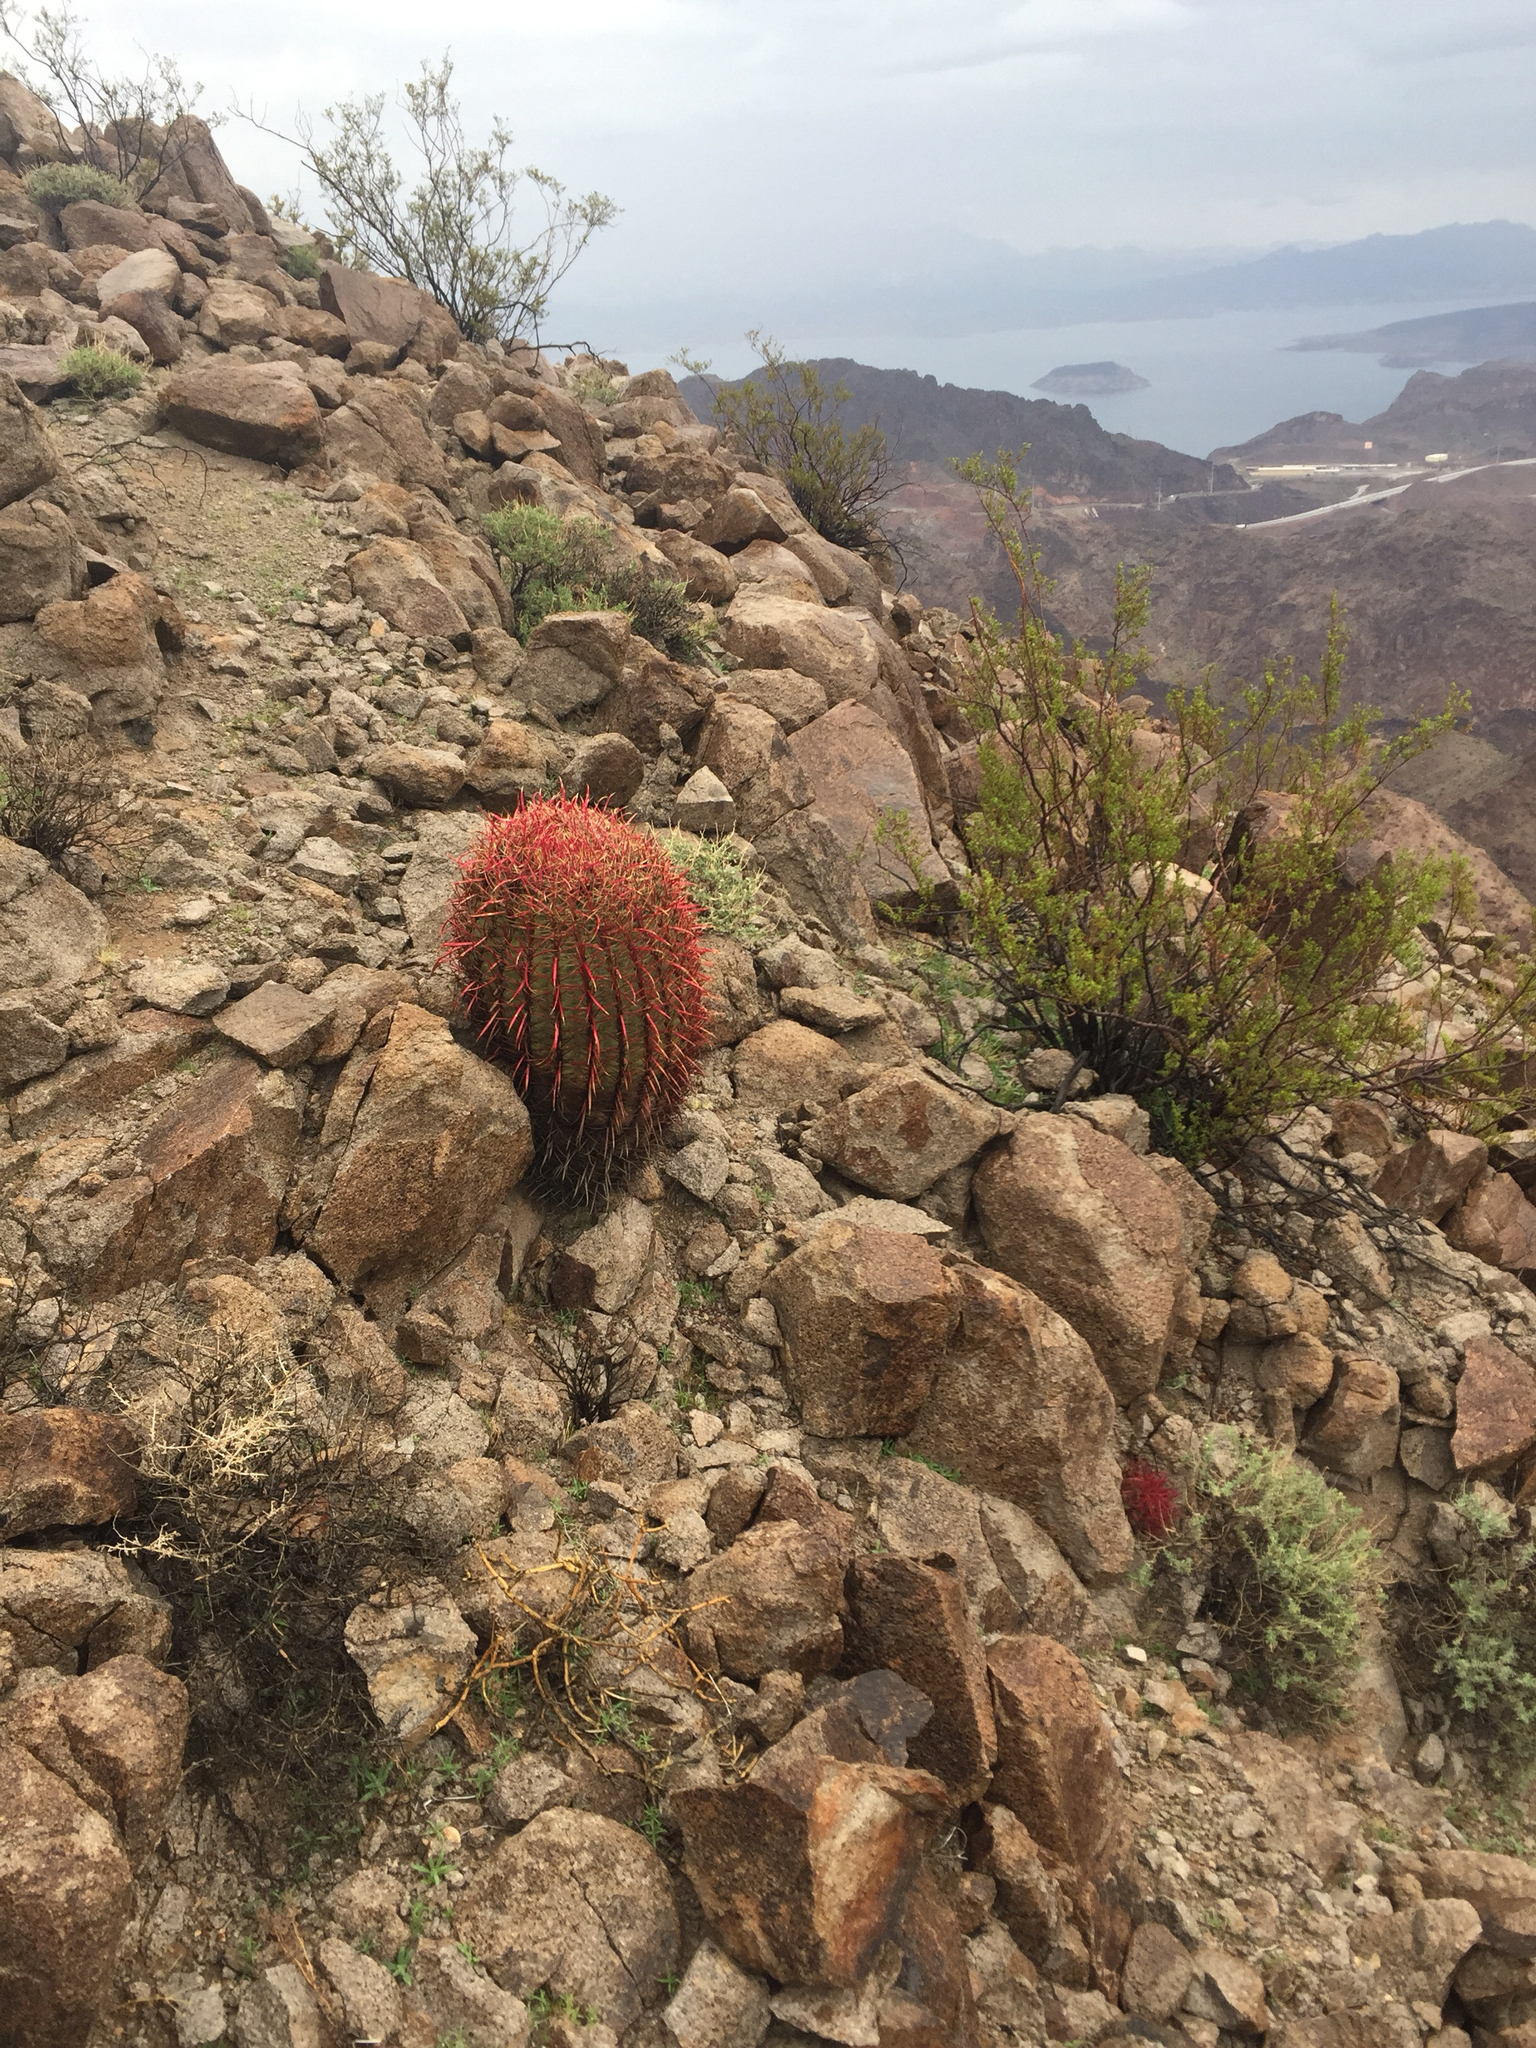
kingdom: Plantae
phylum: Tracheophyta
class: Magnoliopsida
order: Caryophyllales
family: Cactaceae
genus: Ferocactus
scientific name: Ferocactus cylindraceus
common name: California barrel cactus
